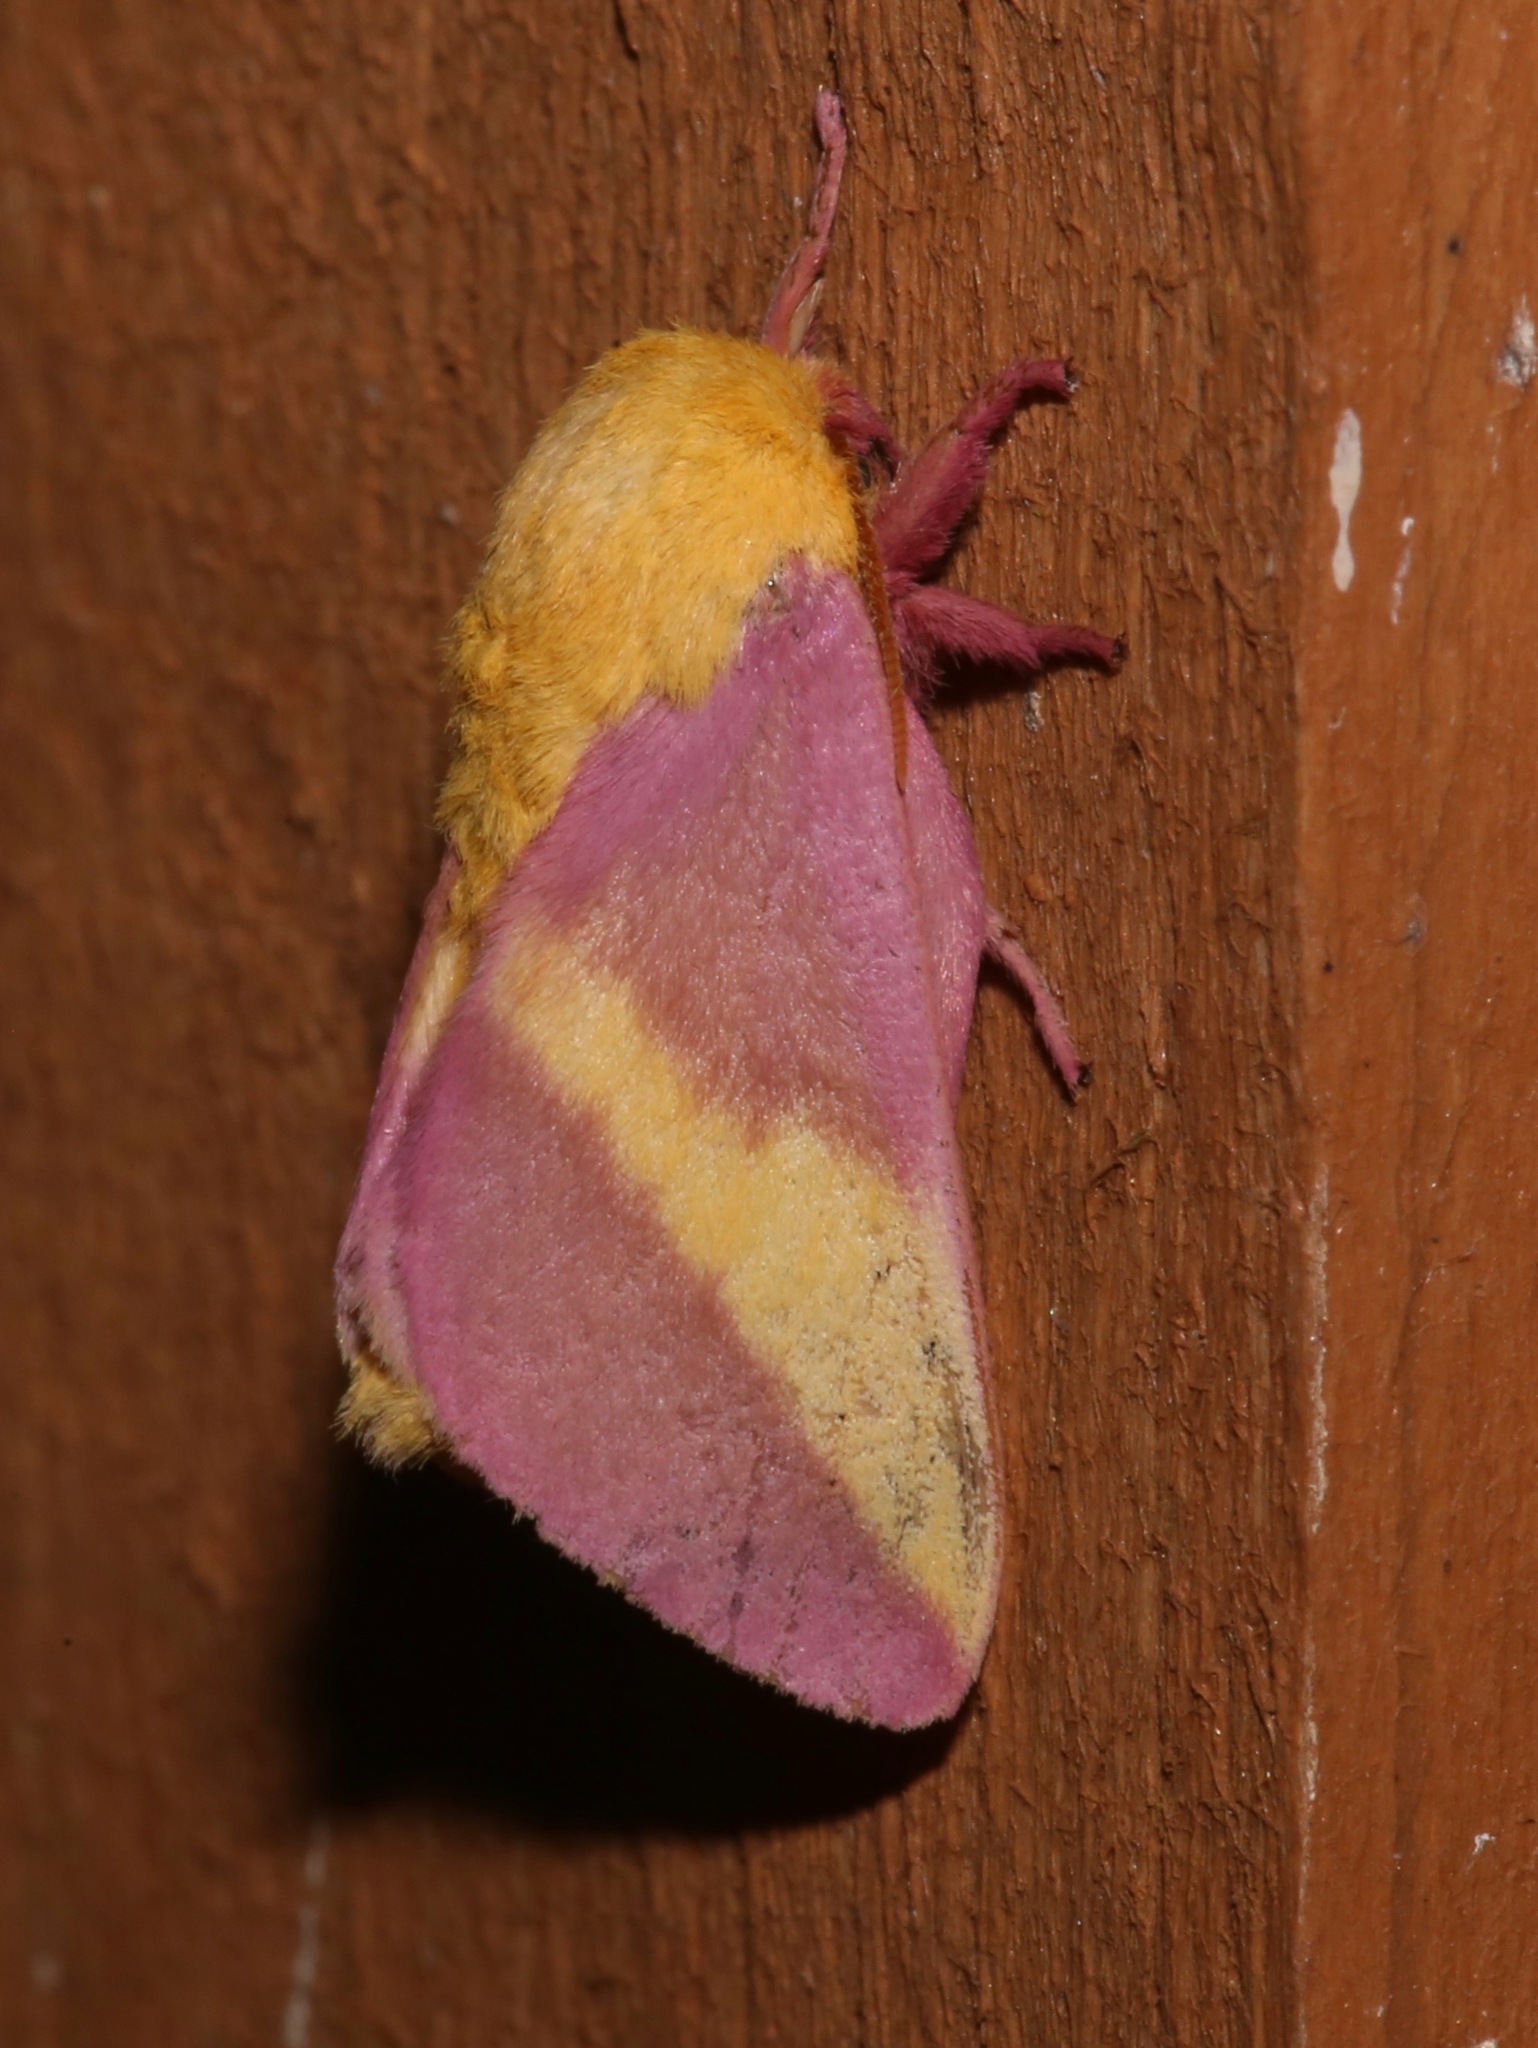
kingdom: Animalia
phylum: Arthropoda
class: Insecta
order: Lepidoptera
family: Saturniidae
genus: Dryocampa
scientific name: Dryocampa rubicunda
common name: Rosy maple moth
